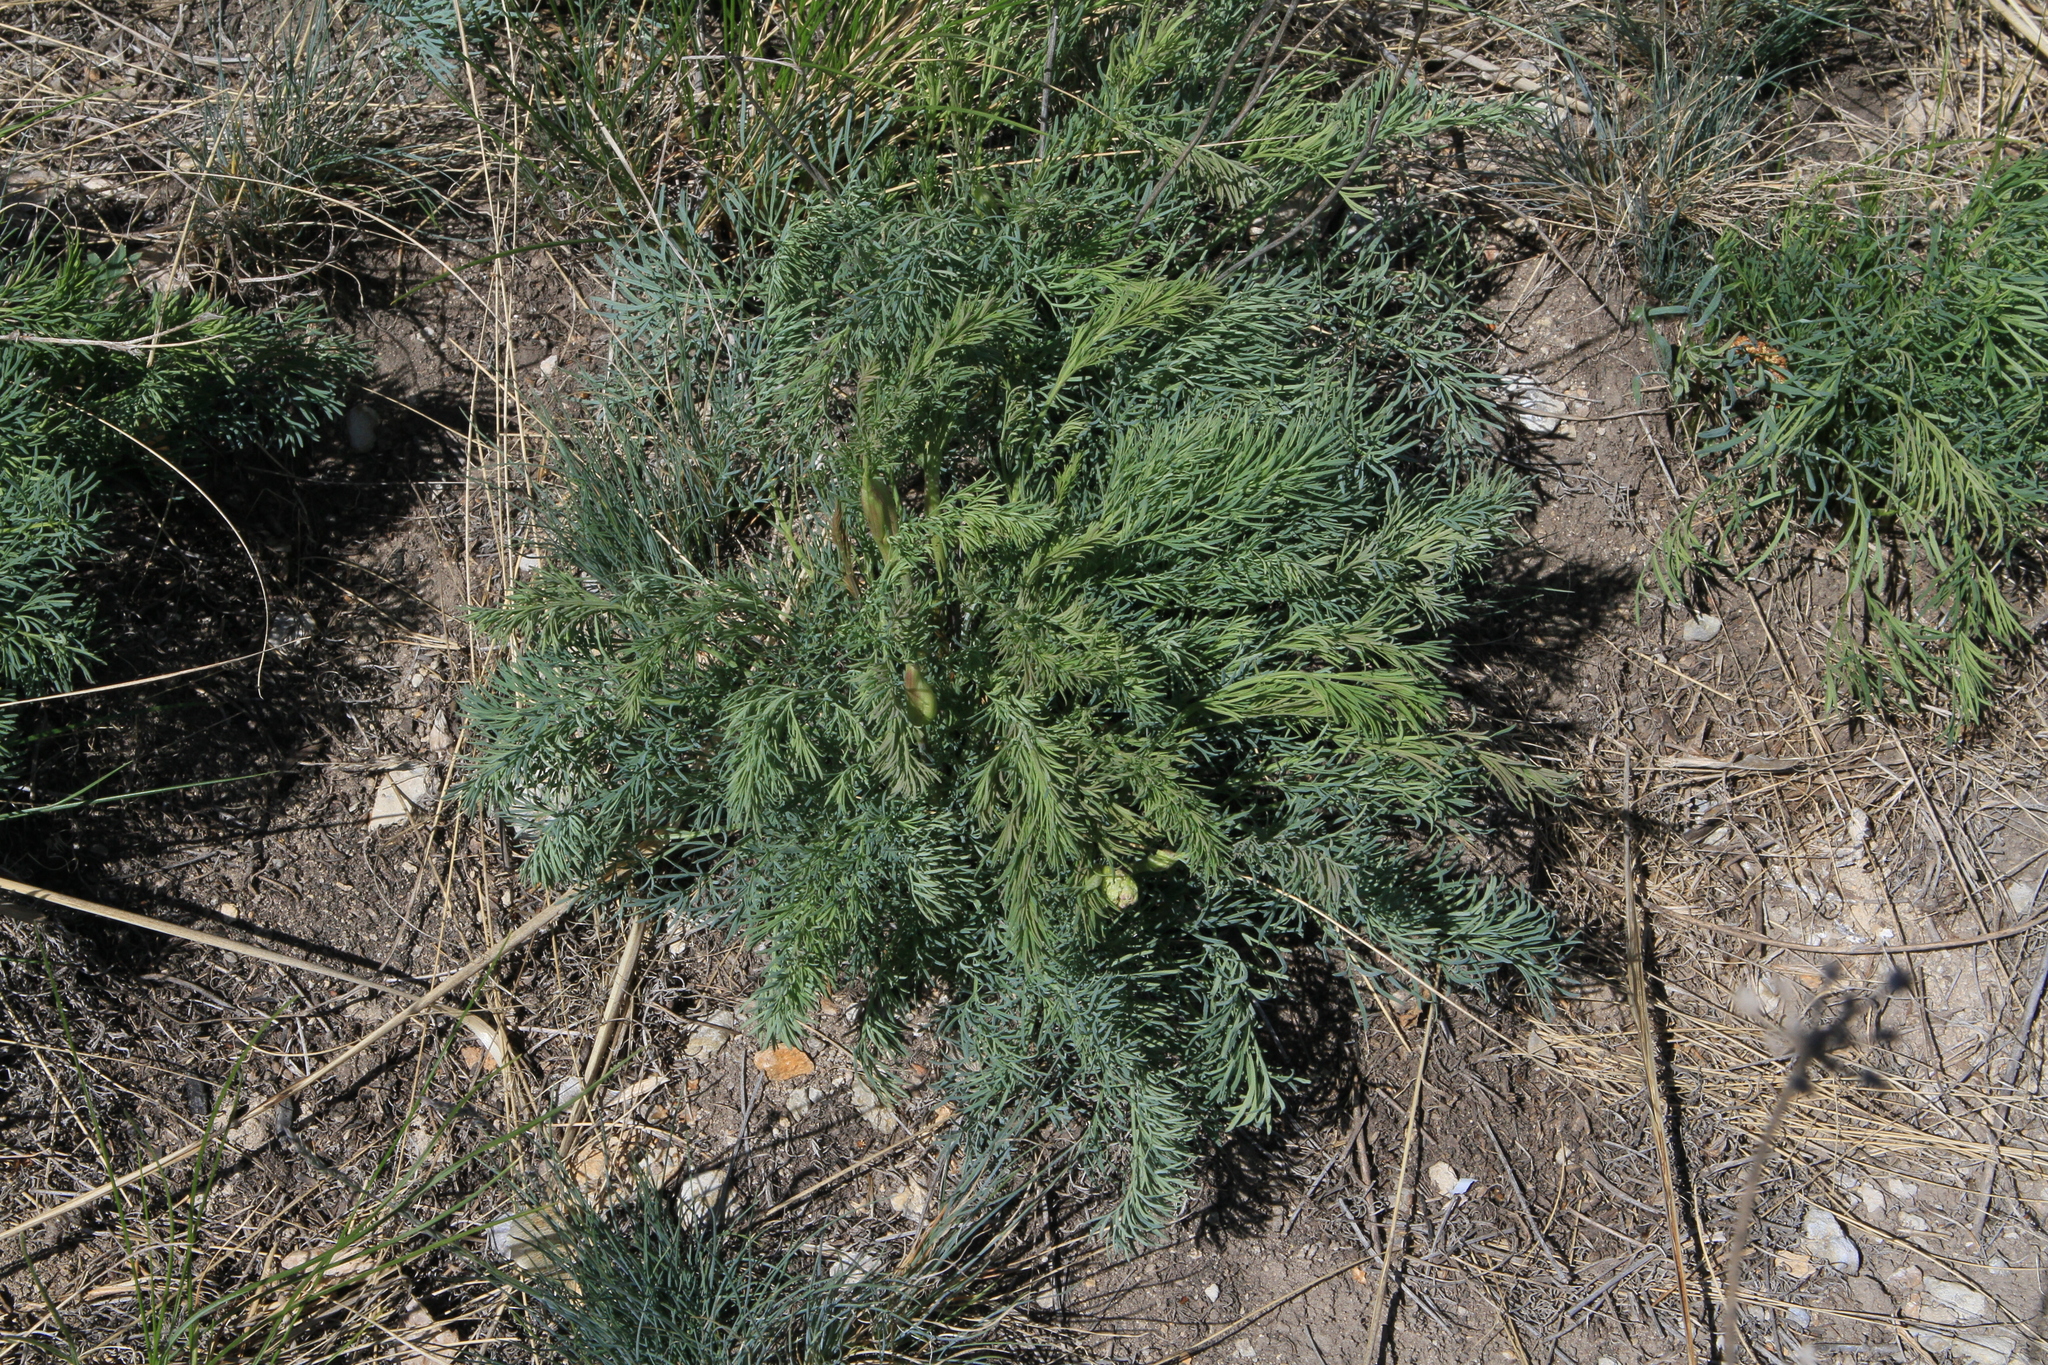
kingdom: Plantae
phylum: Tracheophyta
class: Magnoliopsida
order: Apiales
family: Apiaceae
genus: Seseli
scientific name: Seseli ledebourii
